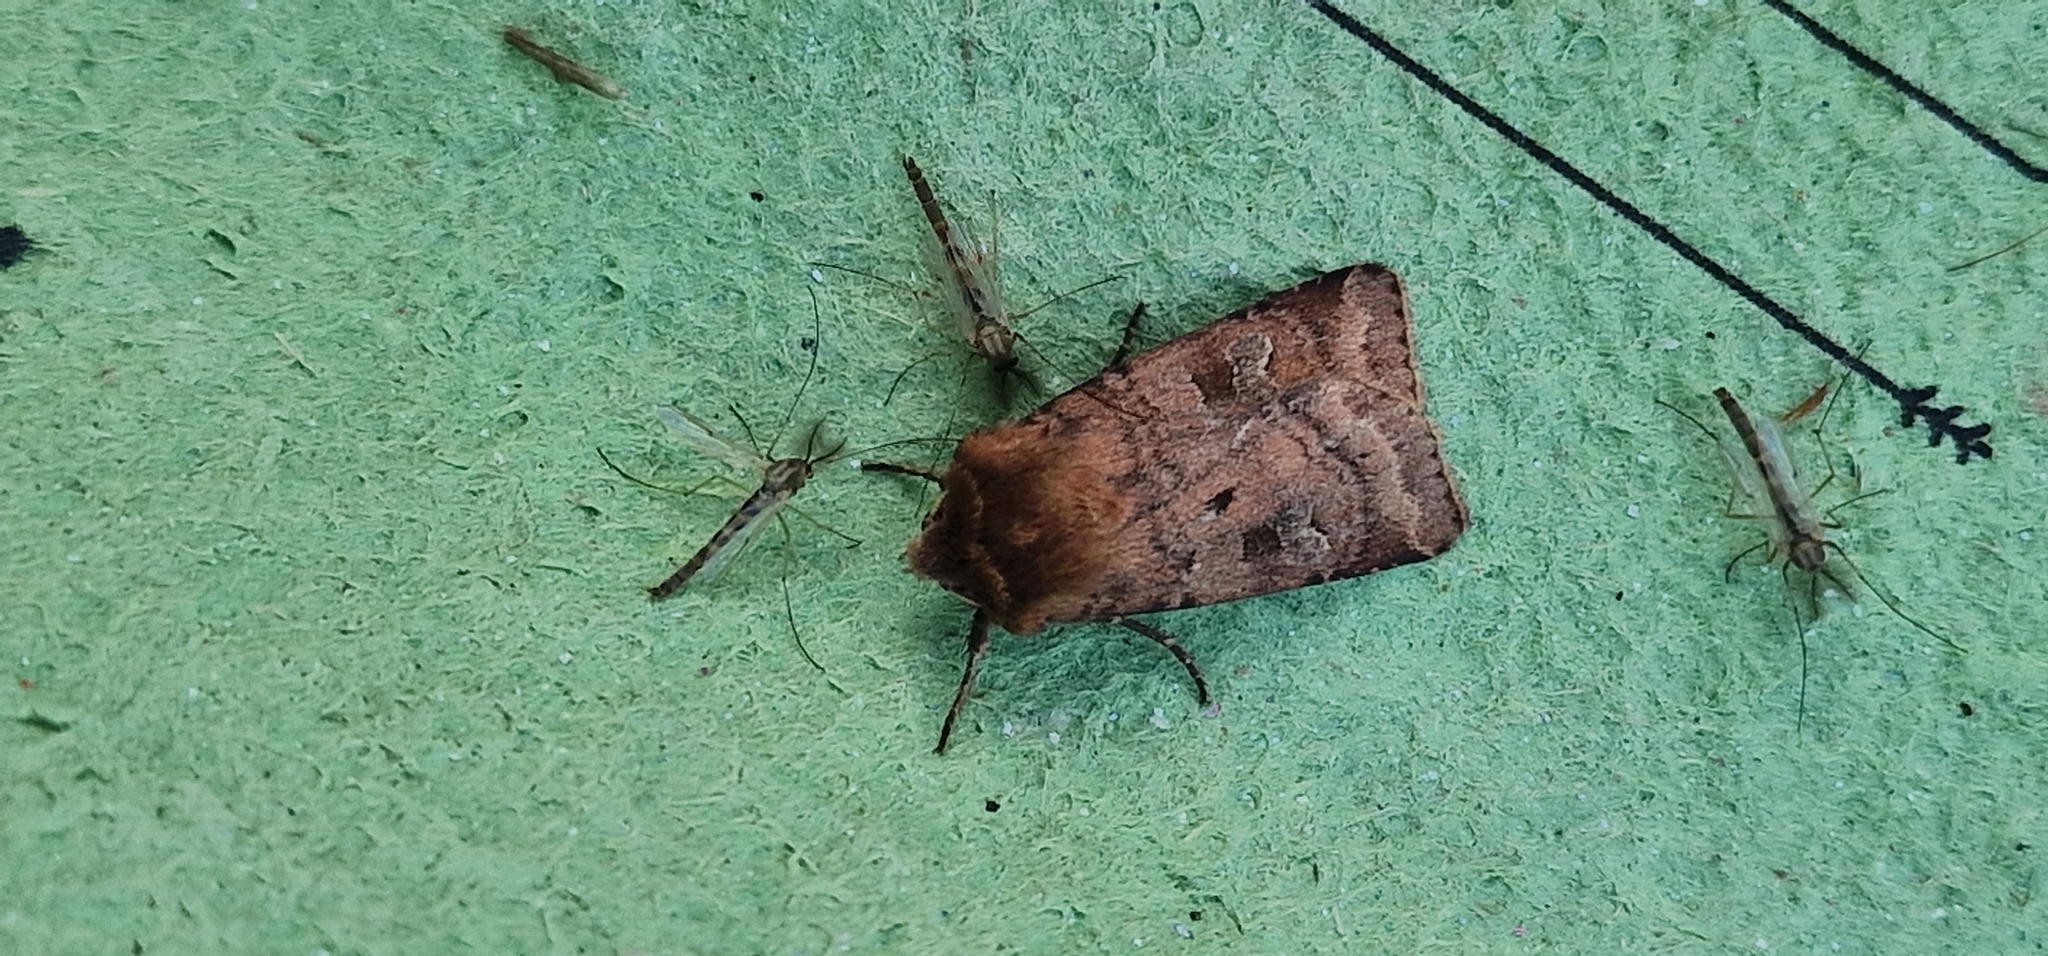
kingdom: Animalia
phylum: Arthropoda
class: Insecta
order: Lepidoptera
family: Noctuidae
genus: Diarsia
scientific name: Diarsia rubi
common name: Small square-spot
